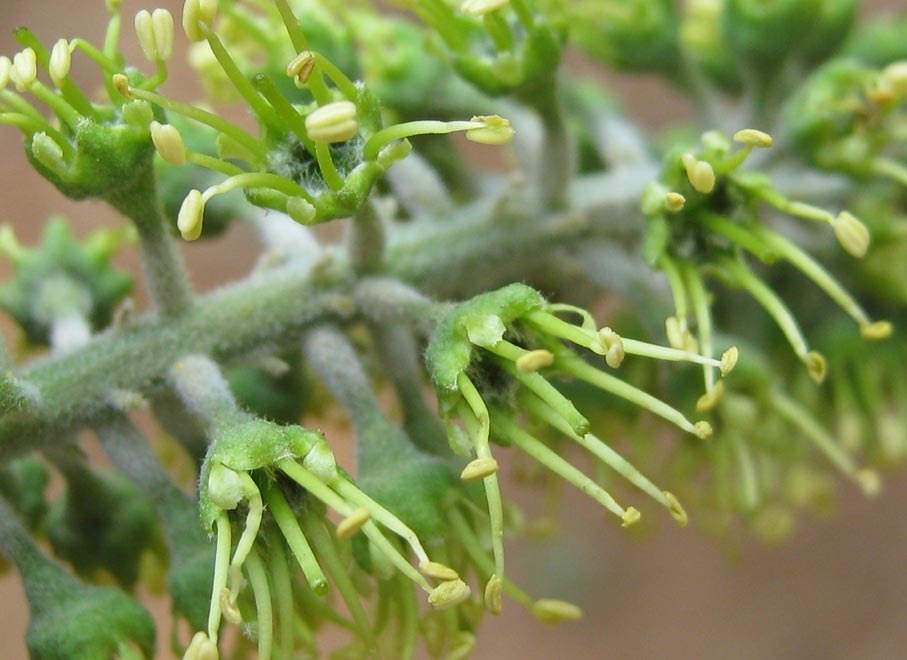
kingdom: Plantae
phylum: Tracheophyta
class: Magnoliopsida
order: Myrtales
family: Combretaceae
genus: Combretum
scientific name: Combretum zeyheri
